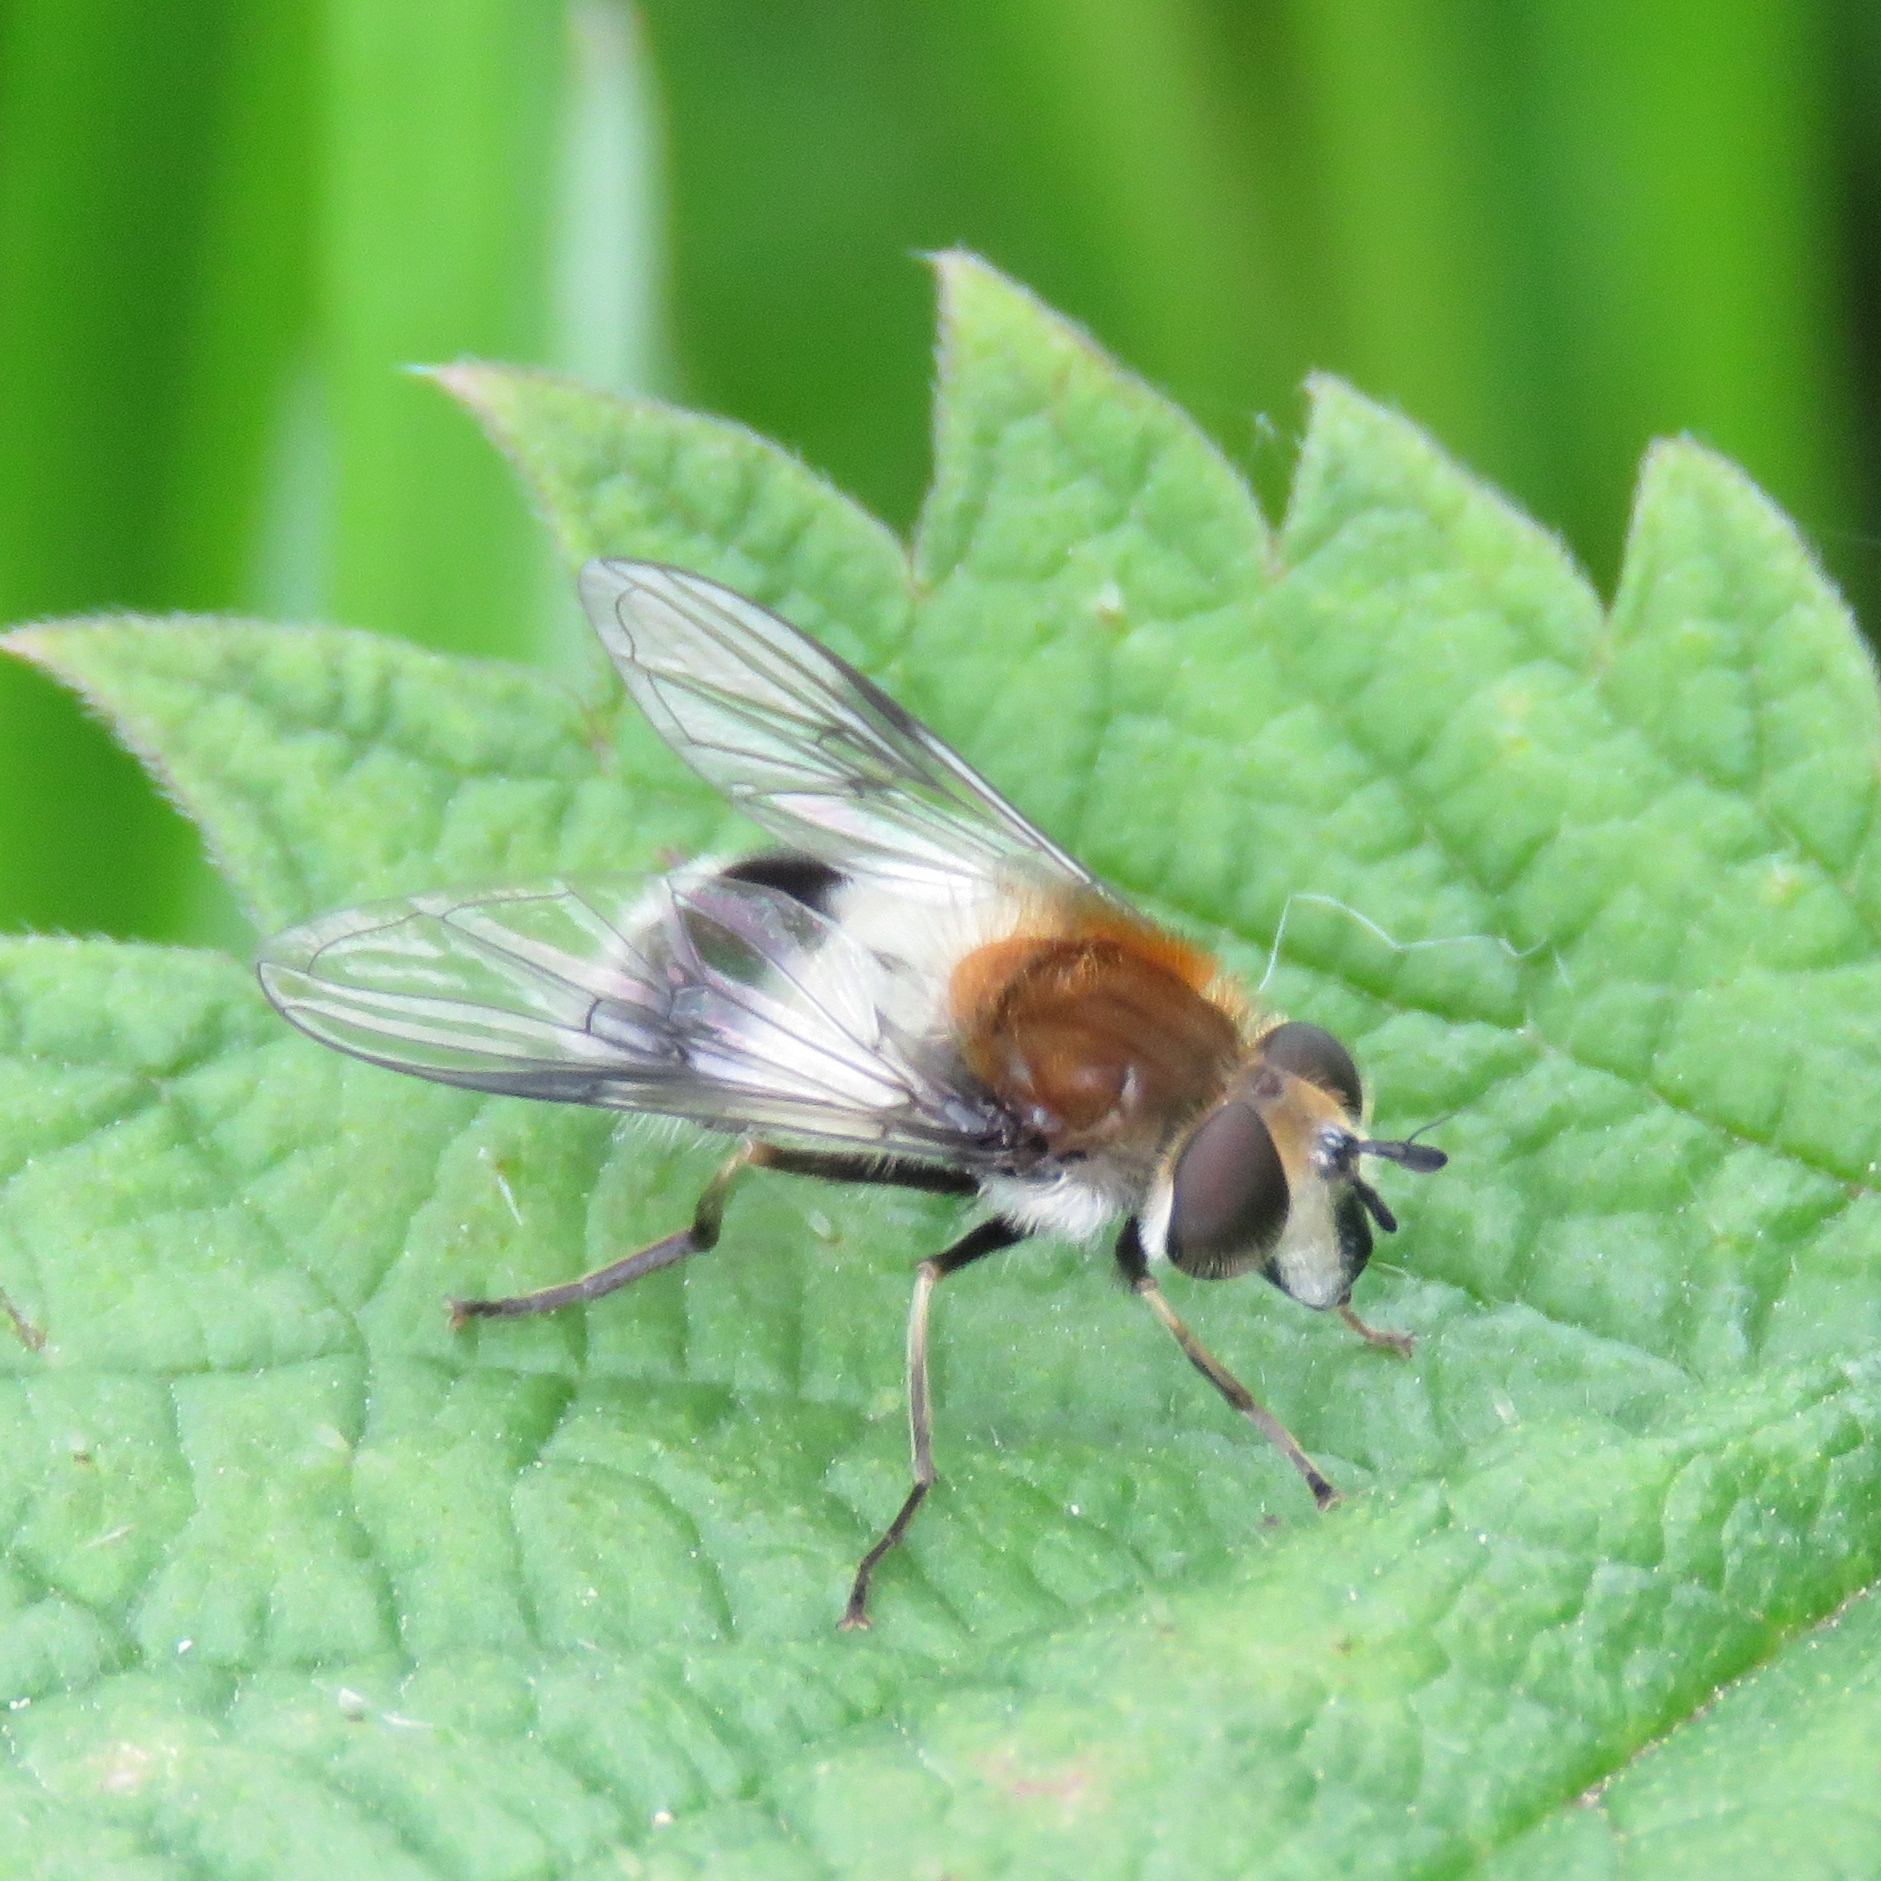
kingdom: Animalia
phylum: Arthropoda
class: Insecta
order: Diptera
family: Syrphidae
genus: Leucozona
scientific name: Leucozona lucorum
